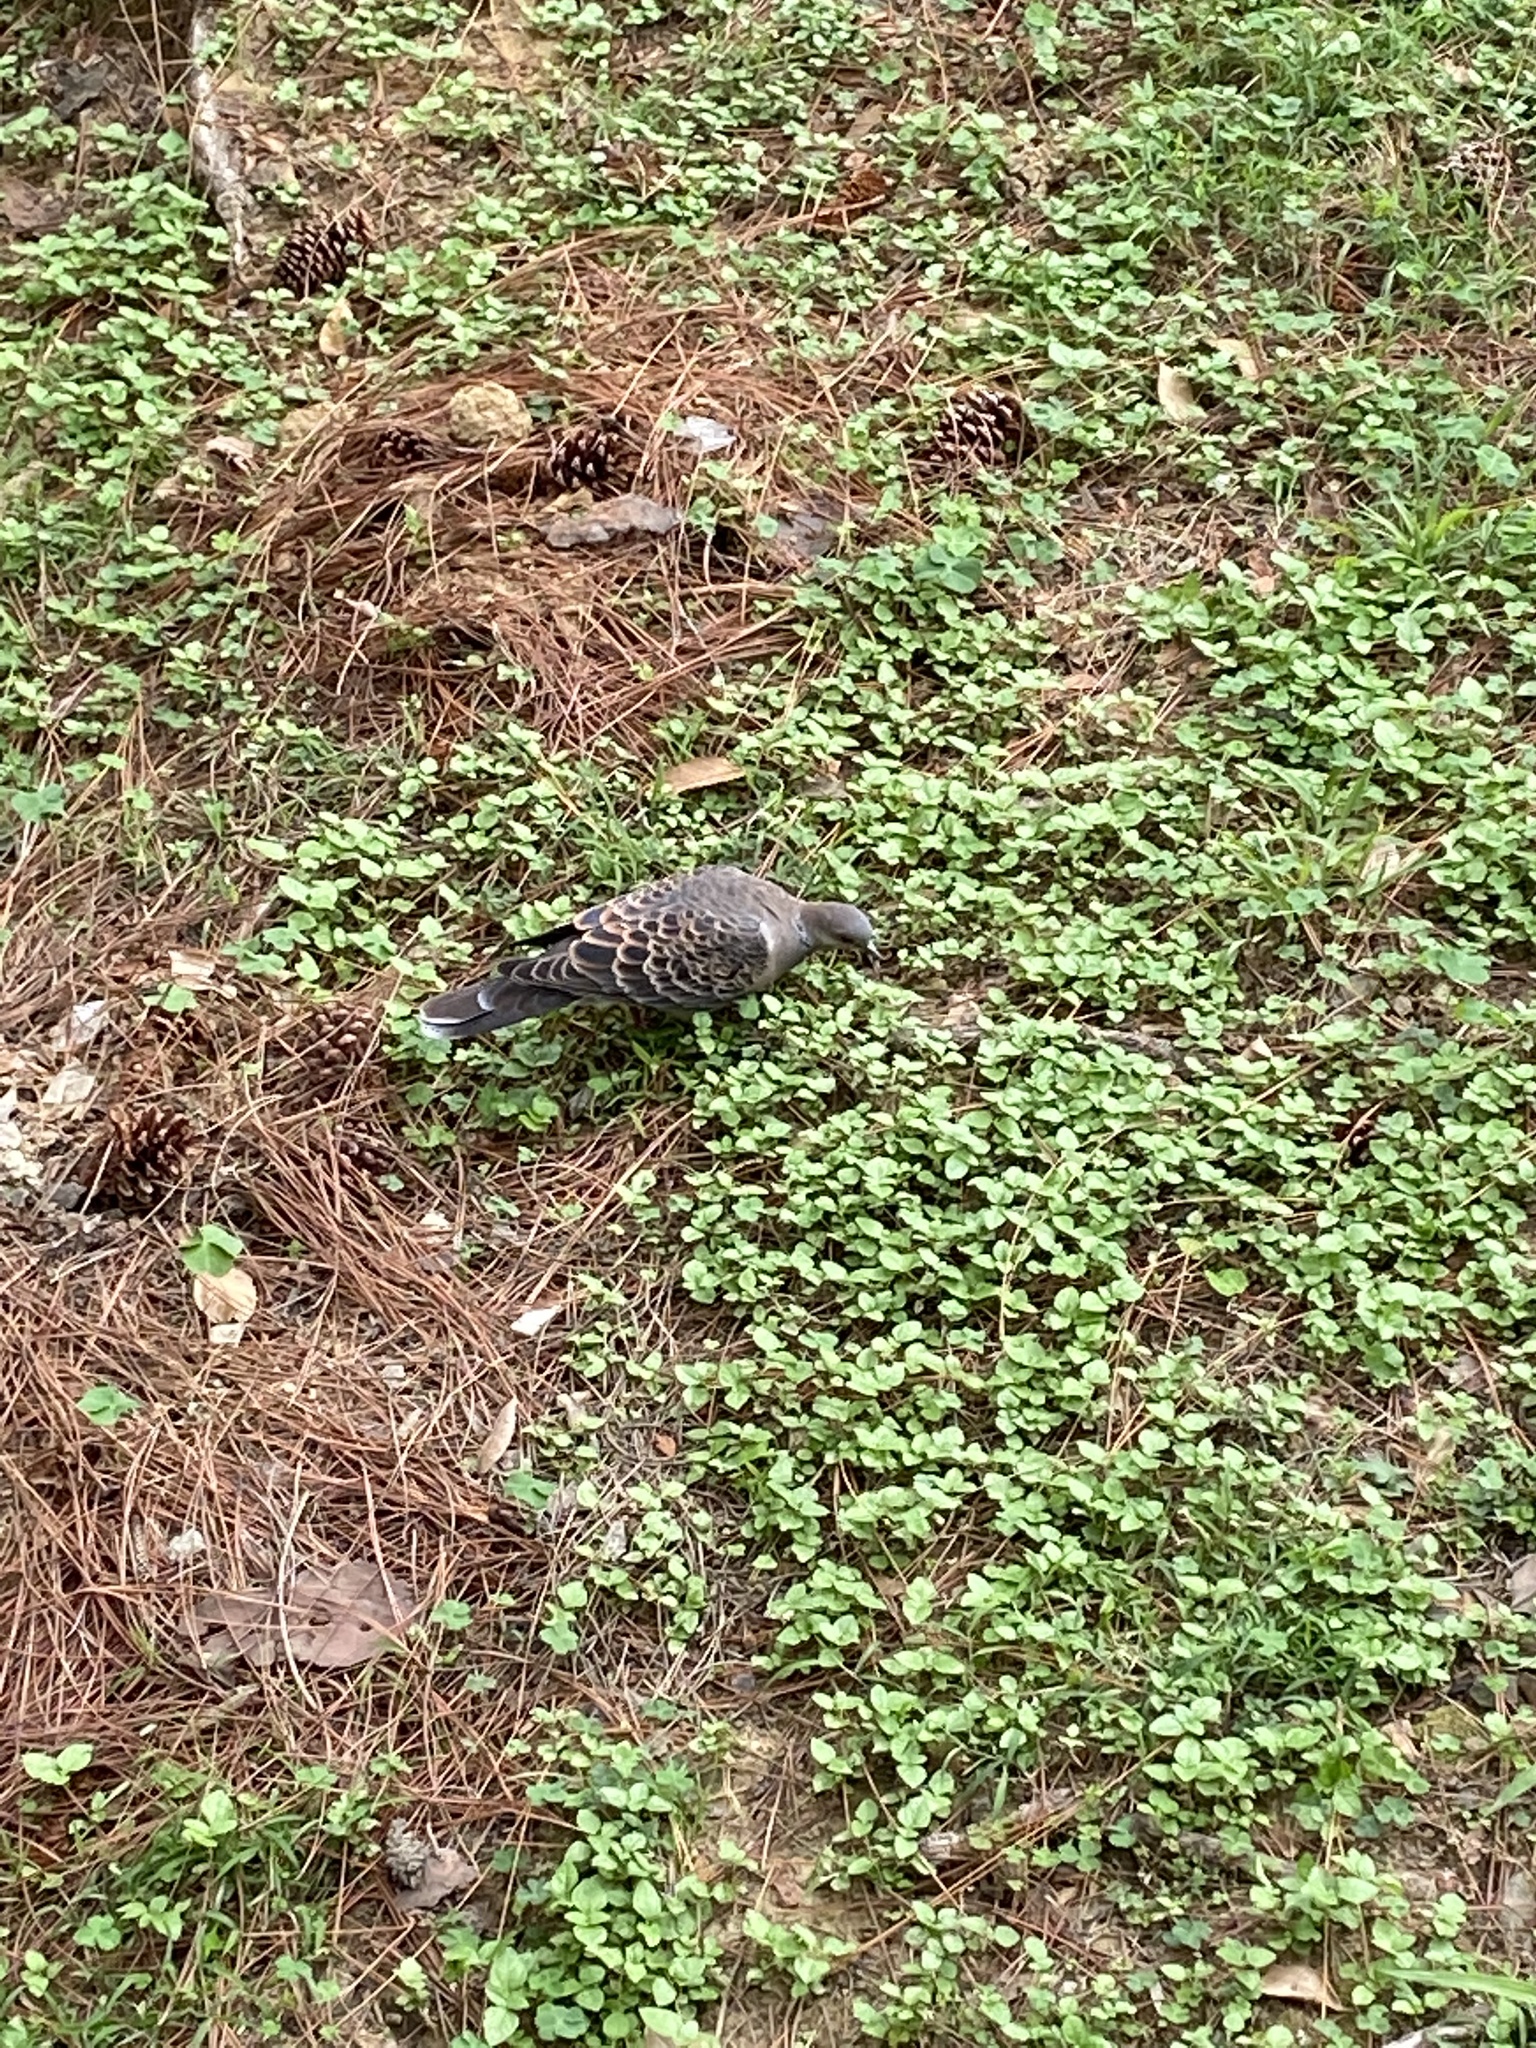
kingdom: Animalia
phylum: Chordata
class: Aves
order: Columbiformes
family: Columbidae
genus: Streptopelia
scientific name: Streptopelia orientalis
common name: Oriental turtle dove
